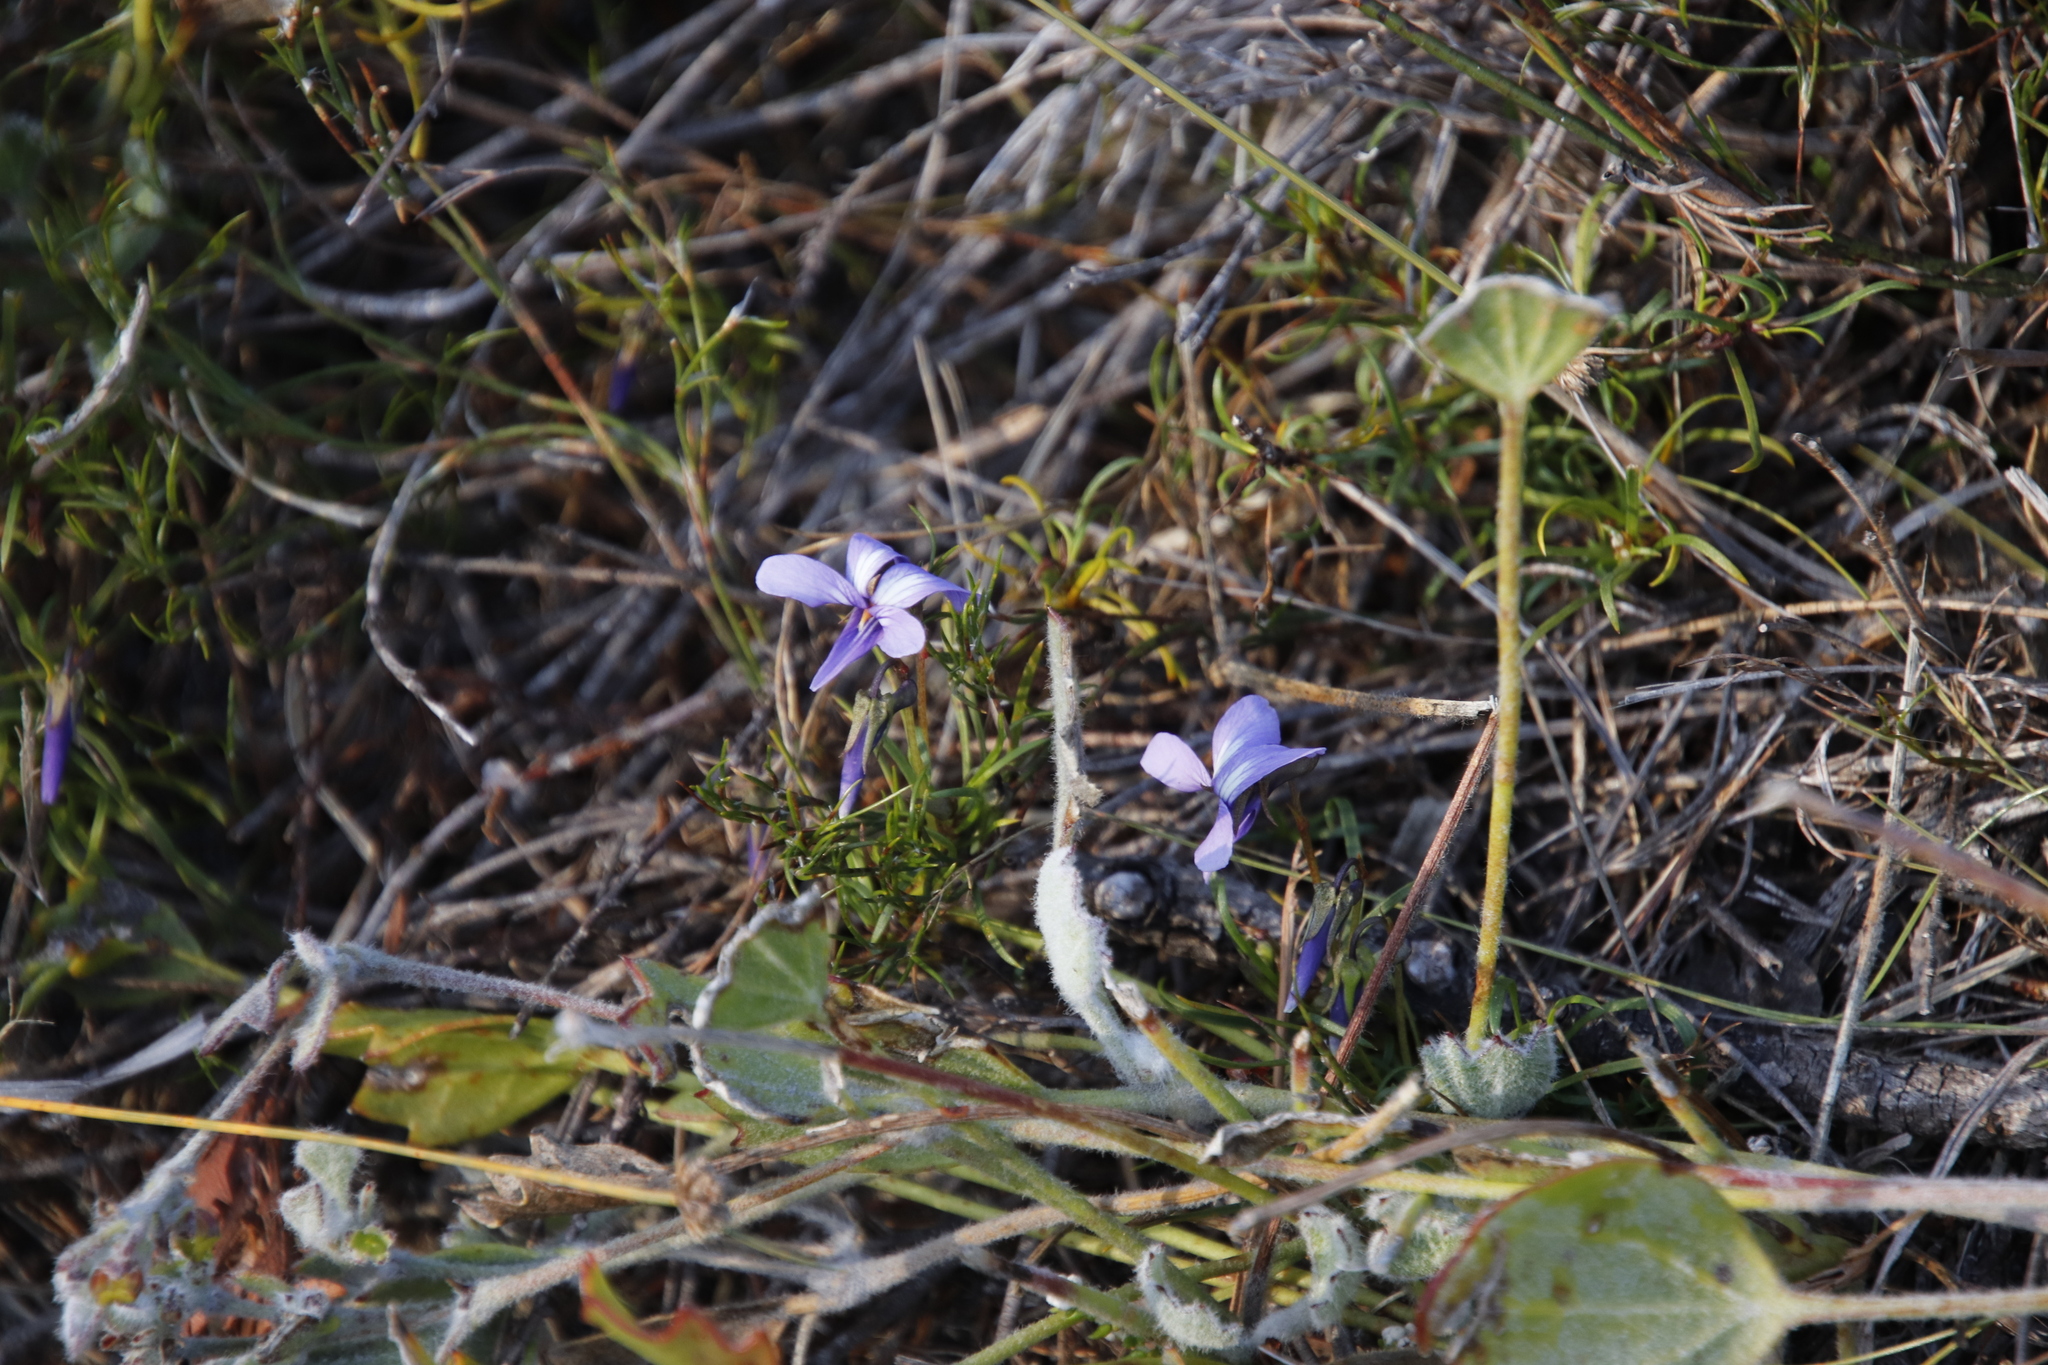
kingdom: Plantae
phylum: Tracheophyta
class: Magnoliopsida
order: Malpighiales
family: Violaceae
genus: Viola
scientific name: Viola decumbens
